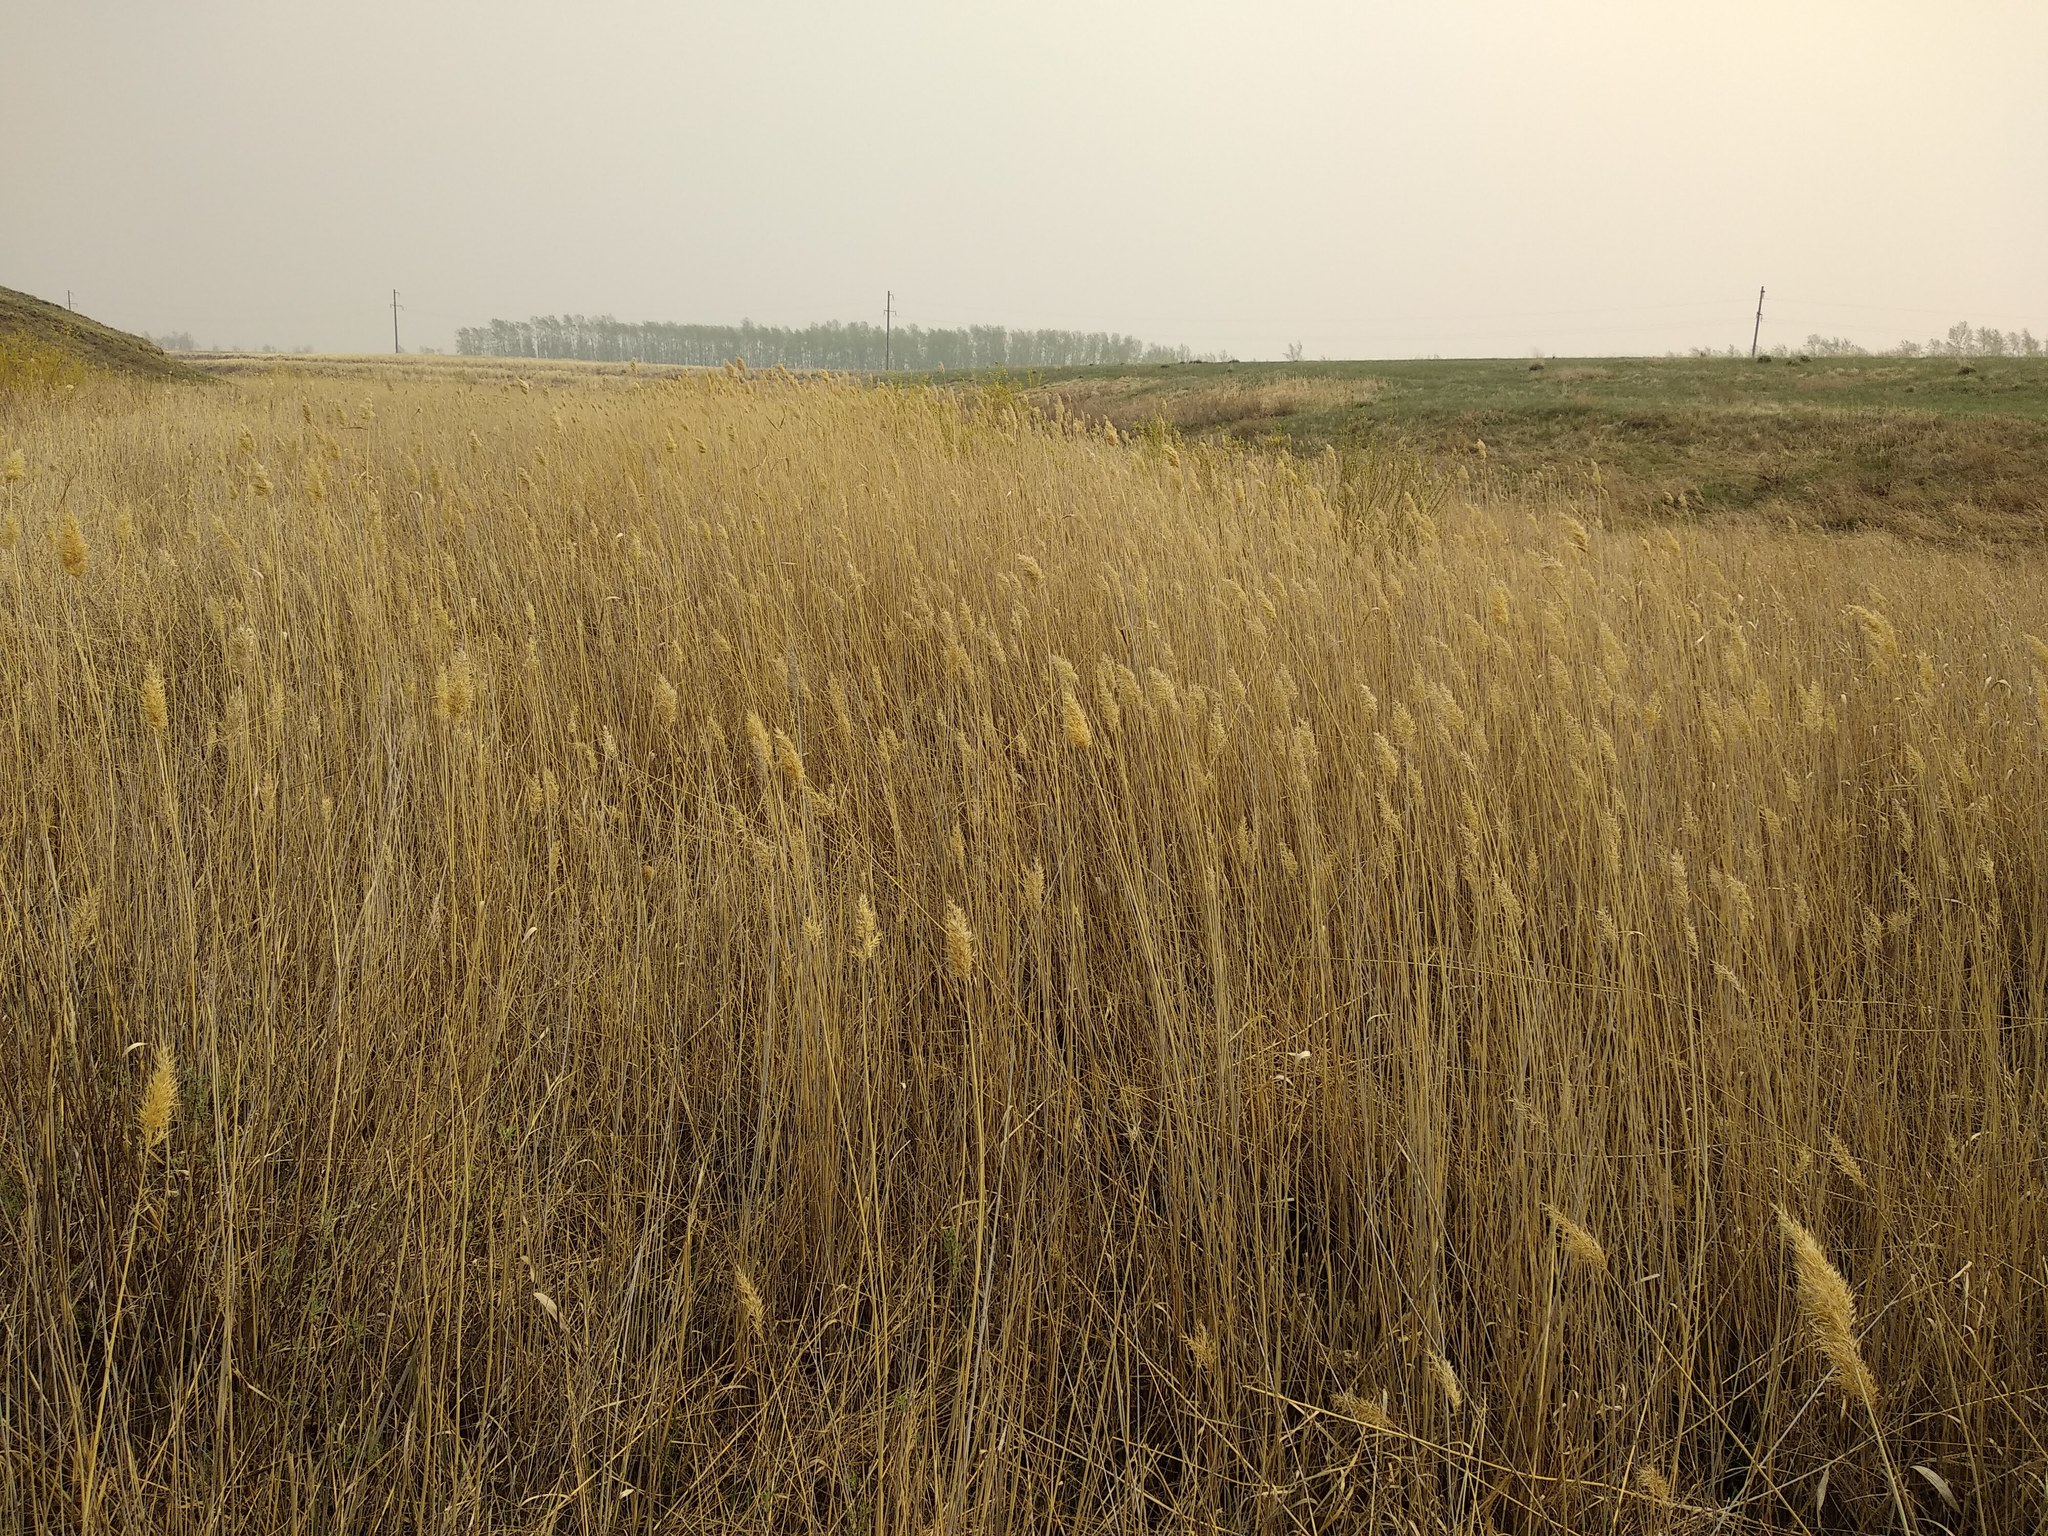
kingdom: Plantae
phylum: Tracheophyta
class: Liliopsida
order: Poales
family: Poaceae
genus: Phragmites
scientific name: Phragmites australis
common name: Common reed
